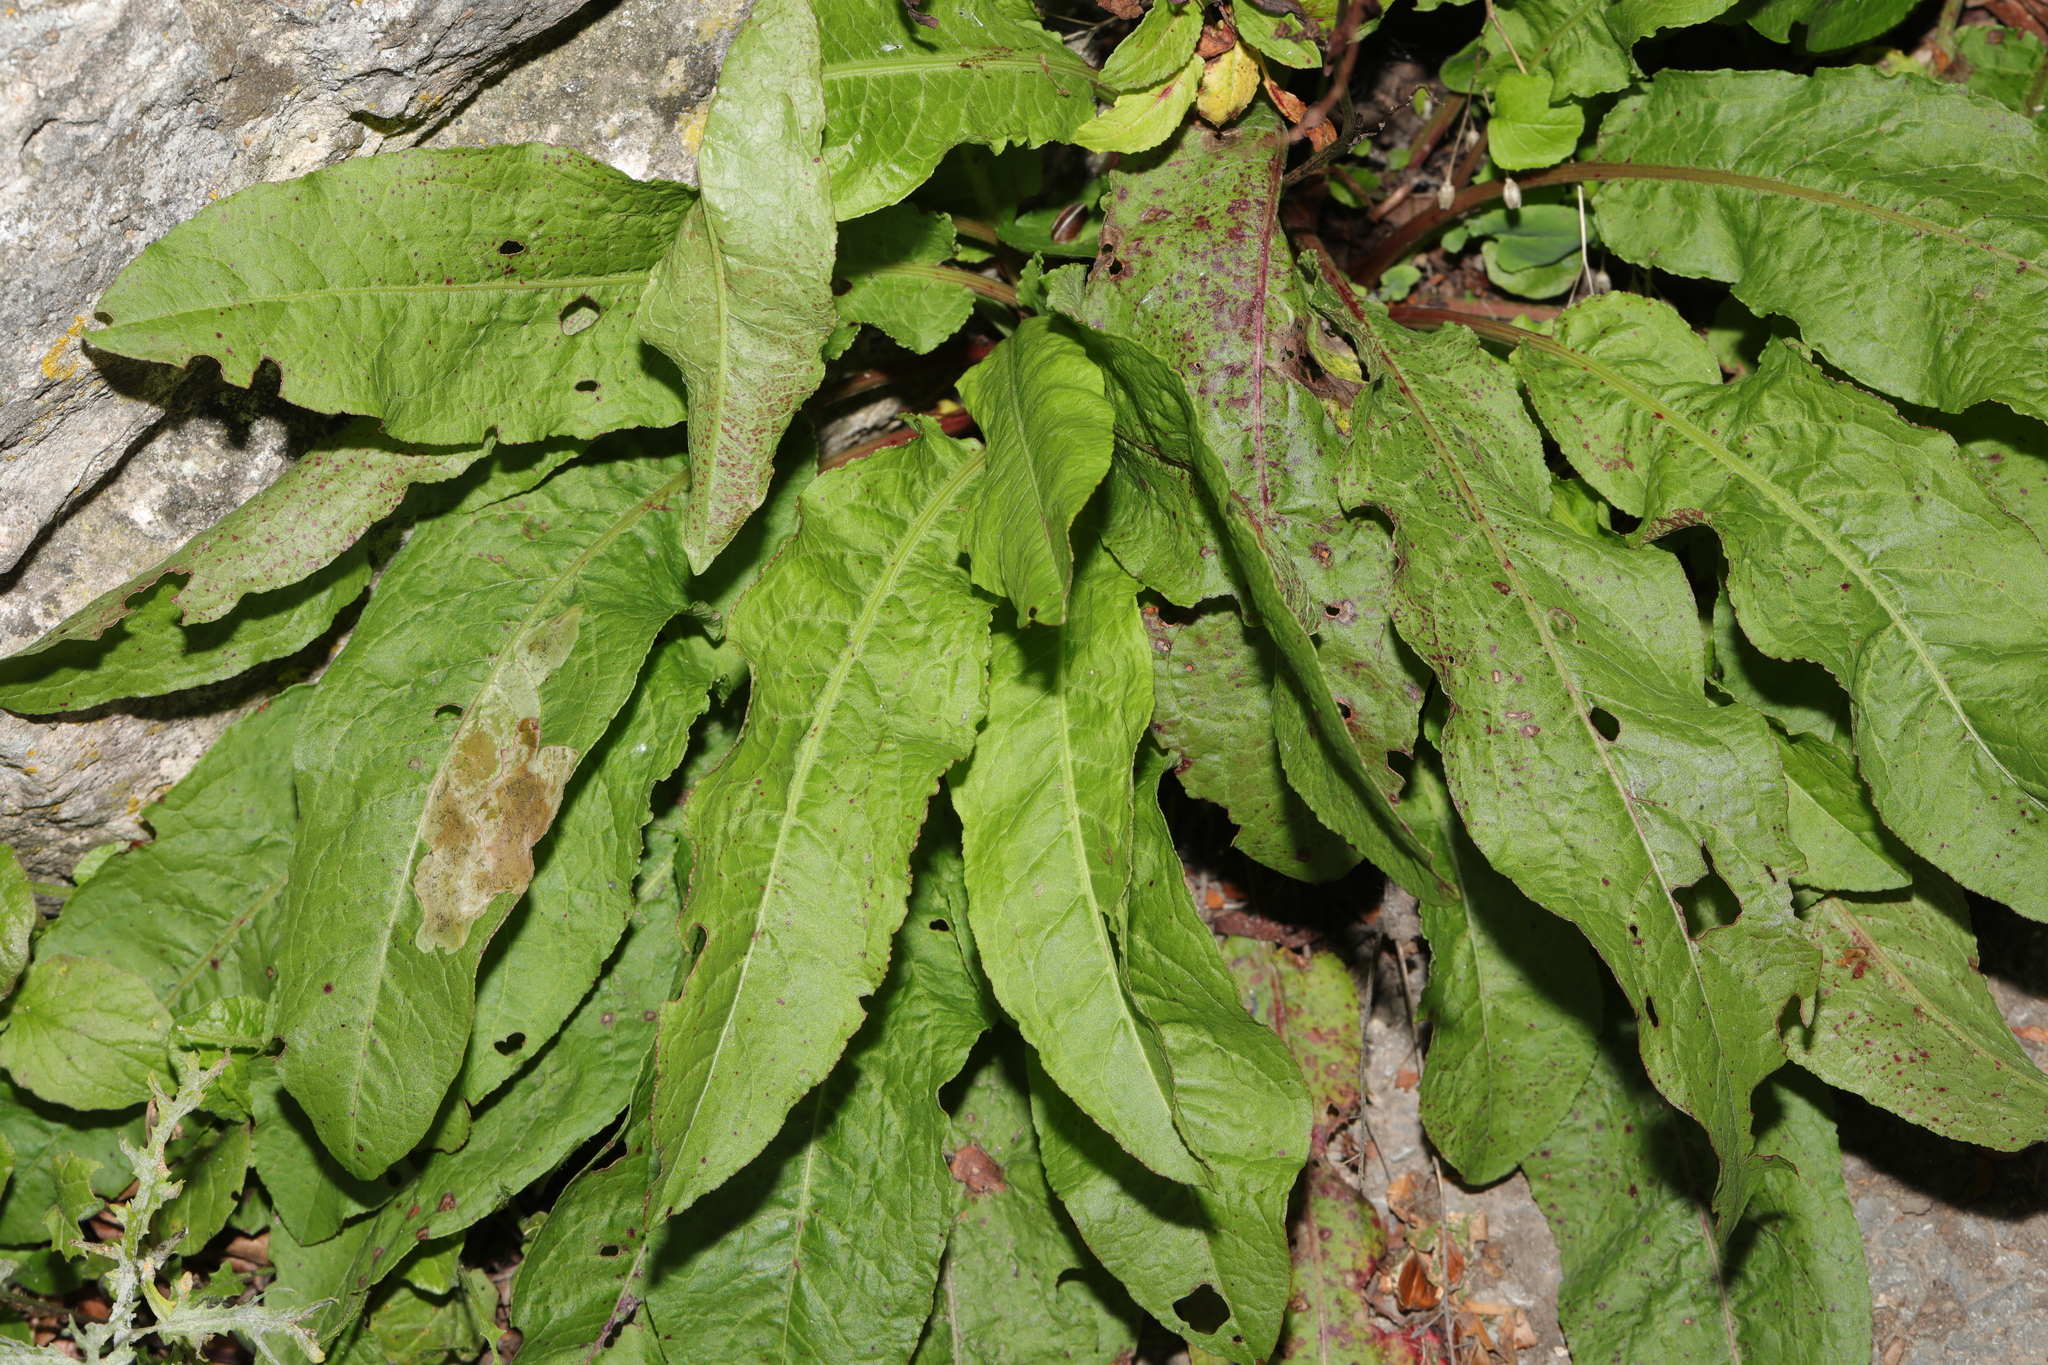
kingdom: Plantae
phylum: Tracheophyta
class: Magnoliopsida
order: Caryophyllales
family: Polygonaceae
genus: Rumex
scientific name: Rumex sanguineus
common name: Wood dock
